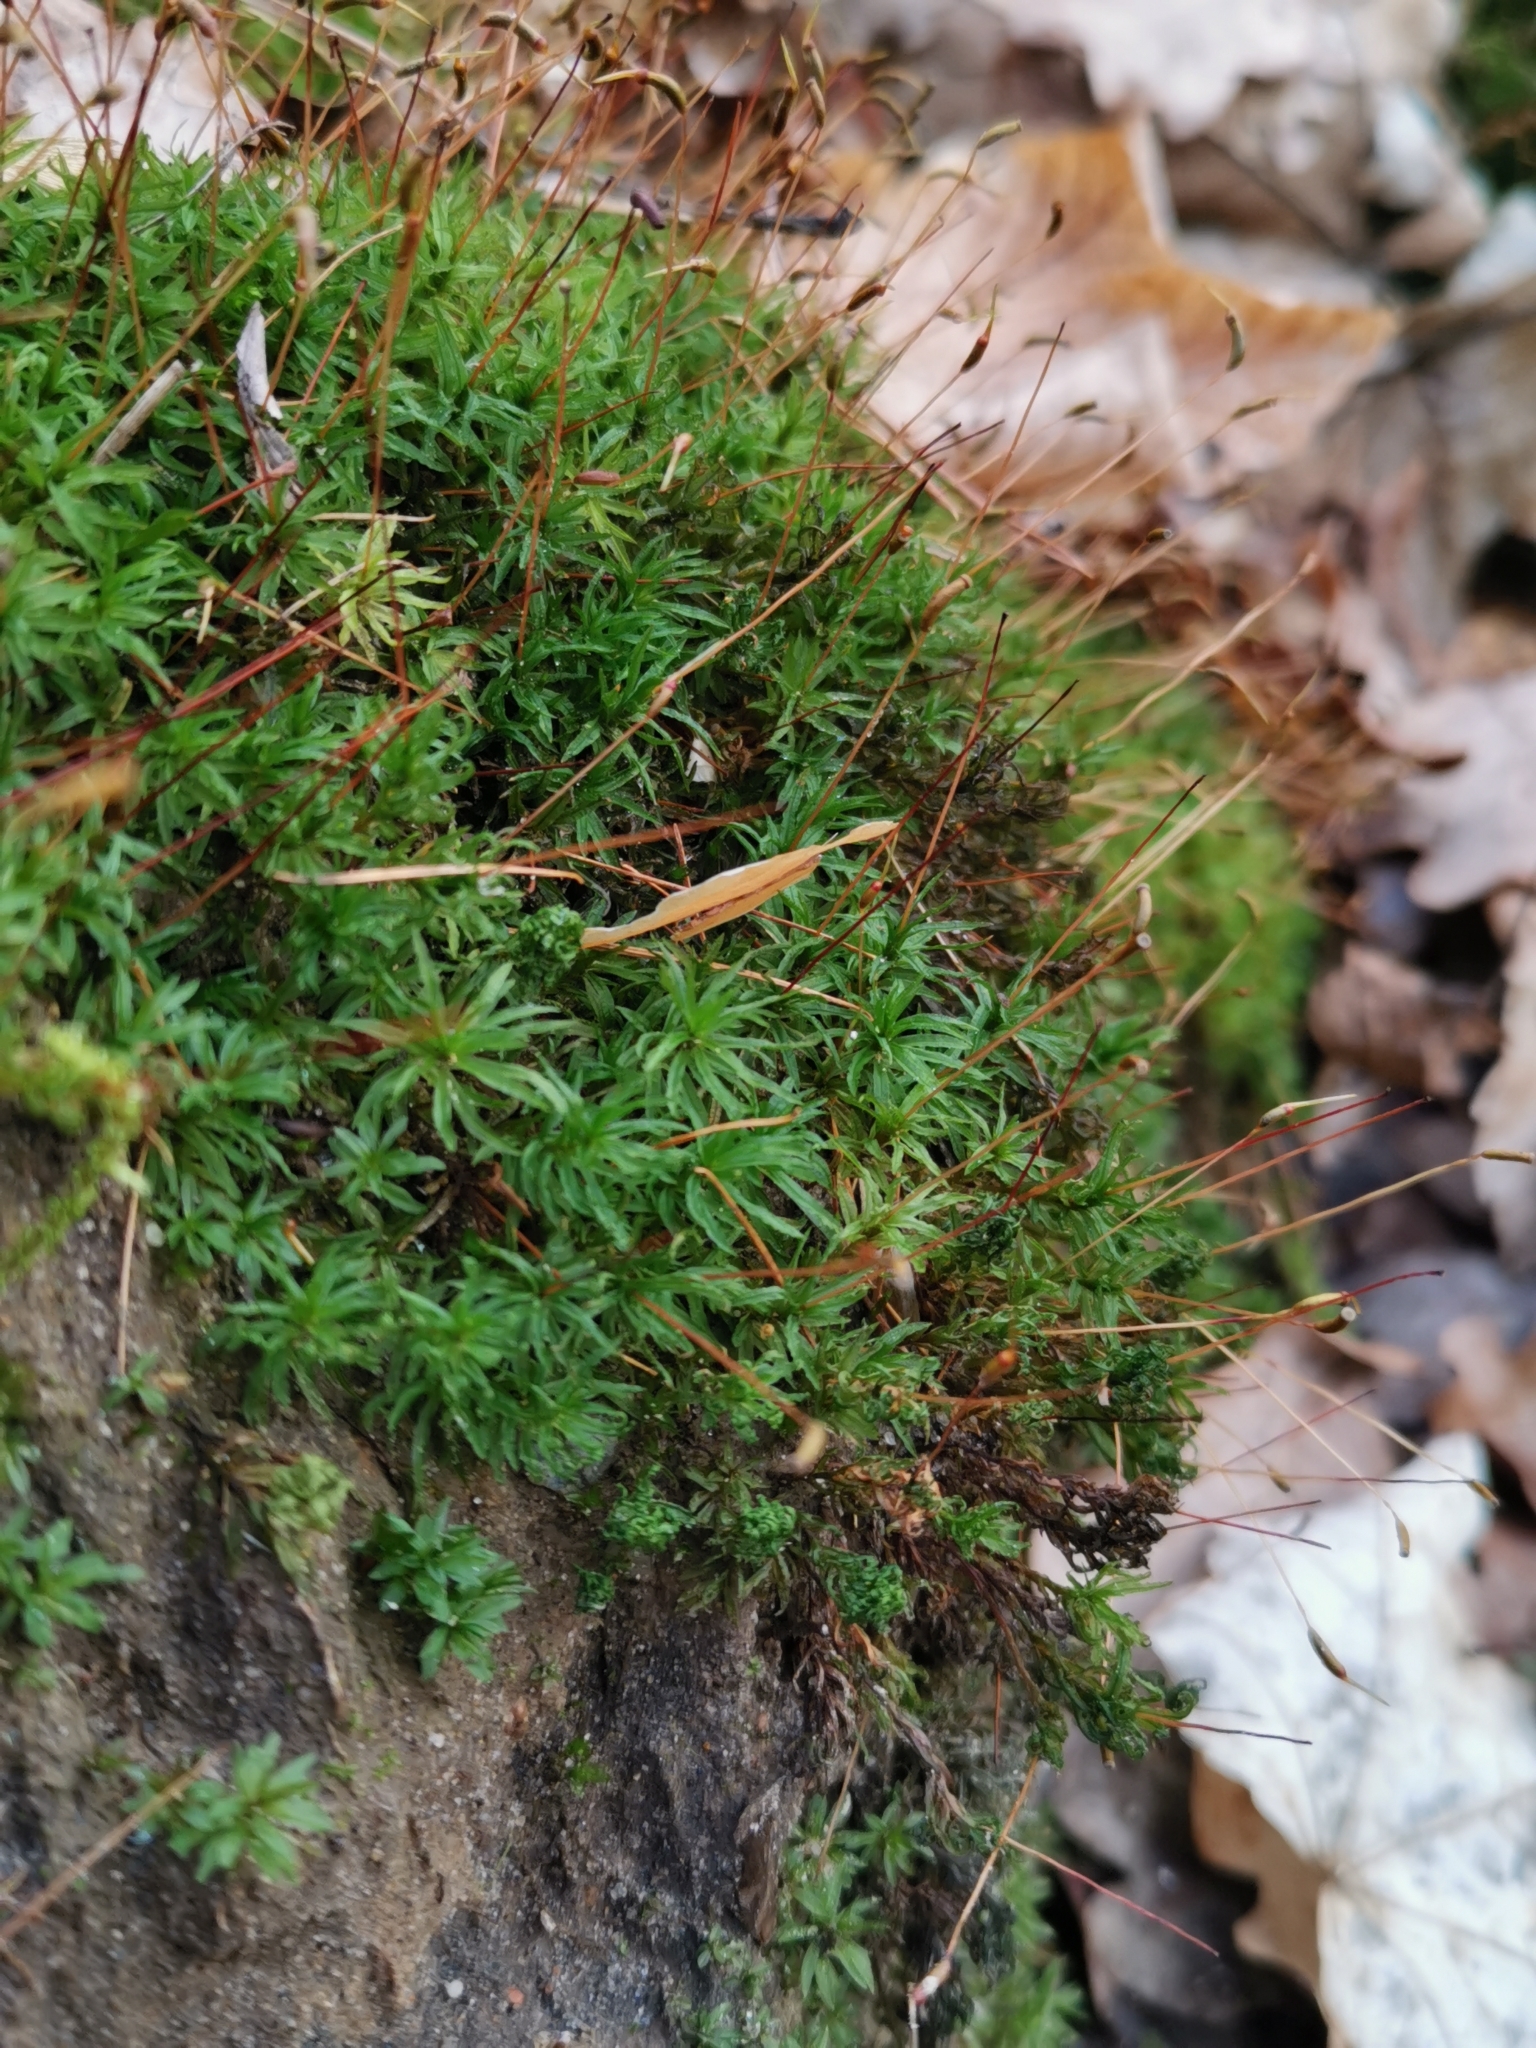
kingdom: Plantae
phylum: Bryophyta
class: Polytrichopsida
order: Polytrichales
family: Polytrichaceae
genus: Atrichum
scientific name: Atrichum undulatum
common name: Common smoothcap
